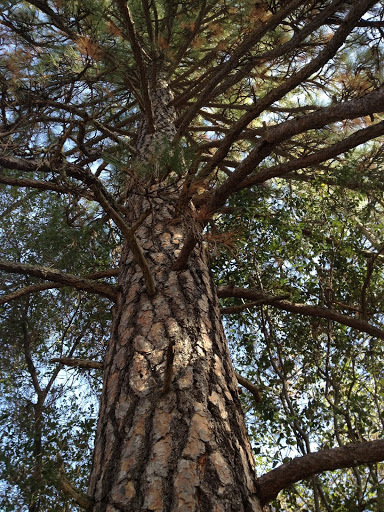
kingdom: Plantae
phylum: Tracheophyta
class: Pinopsida
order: Pinales
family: Pinaceae
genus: Pinus
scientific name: Pinus ponderosa
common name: Western yellow-pine
